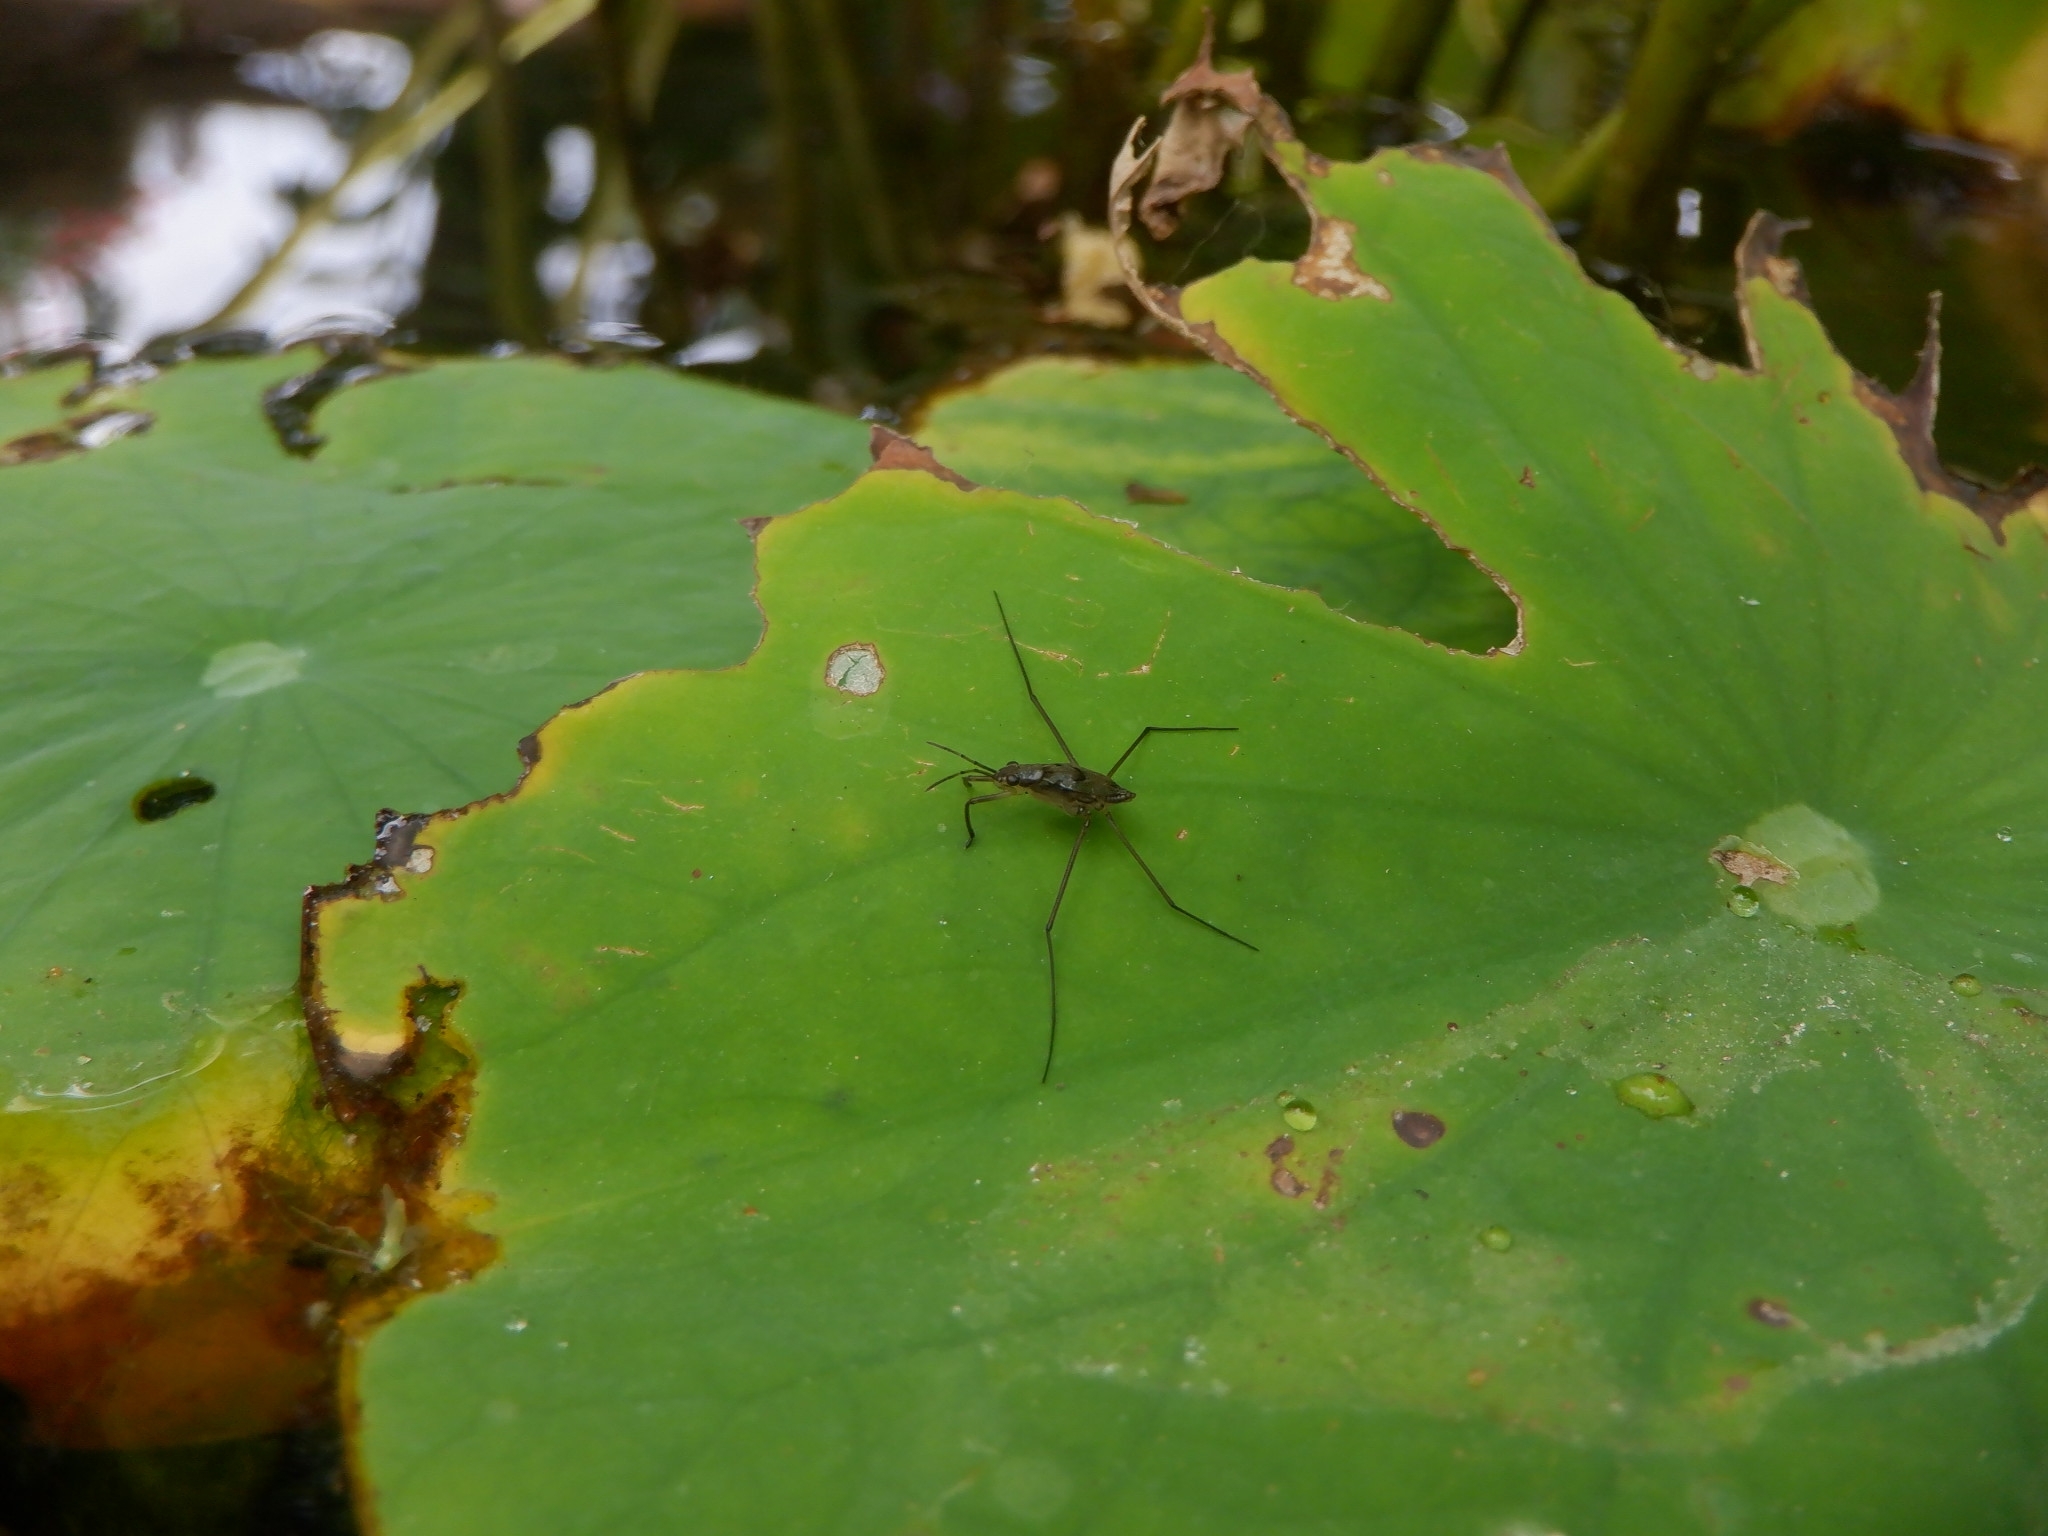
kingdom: Animalia
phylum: Arthropoda
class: Insecta
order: Hemiptera
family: Gerridae
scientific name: Gerridae
